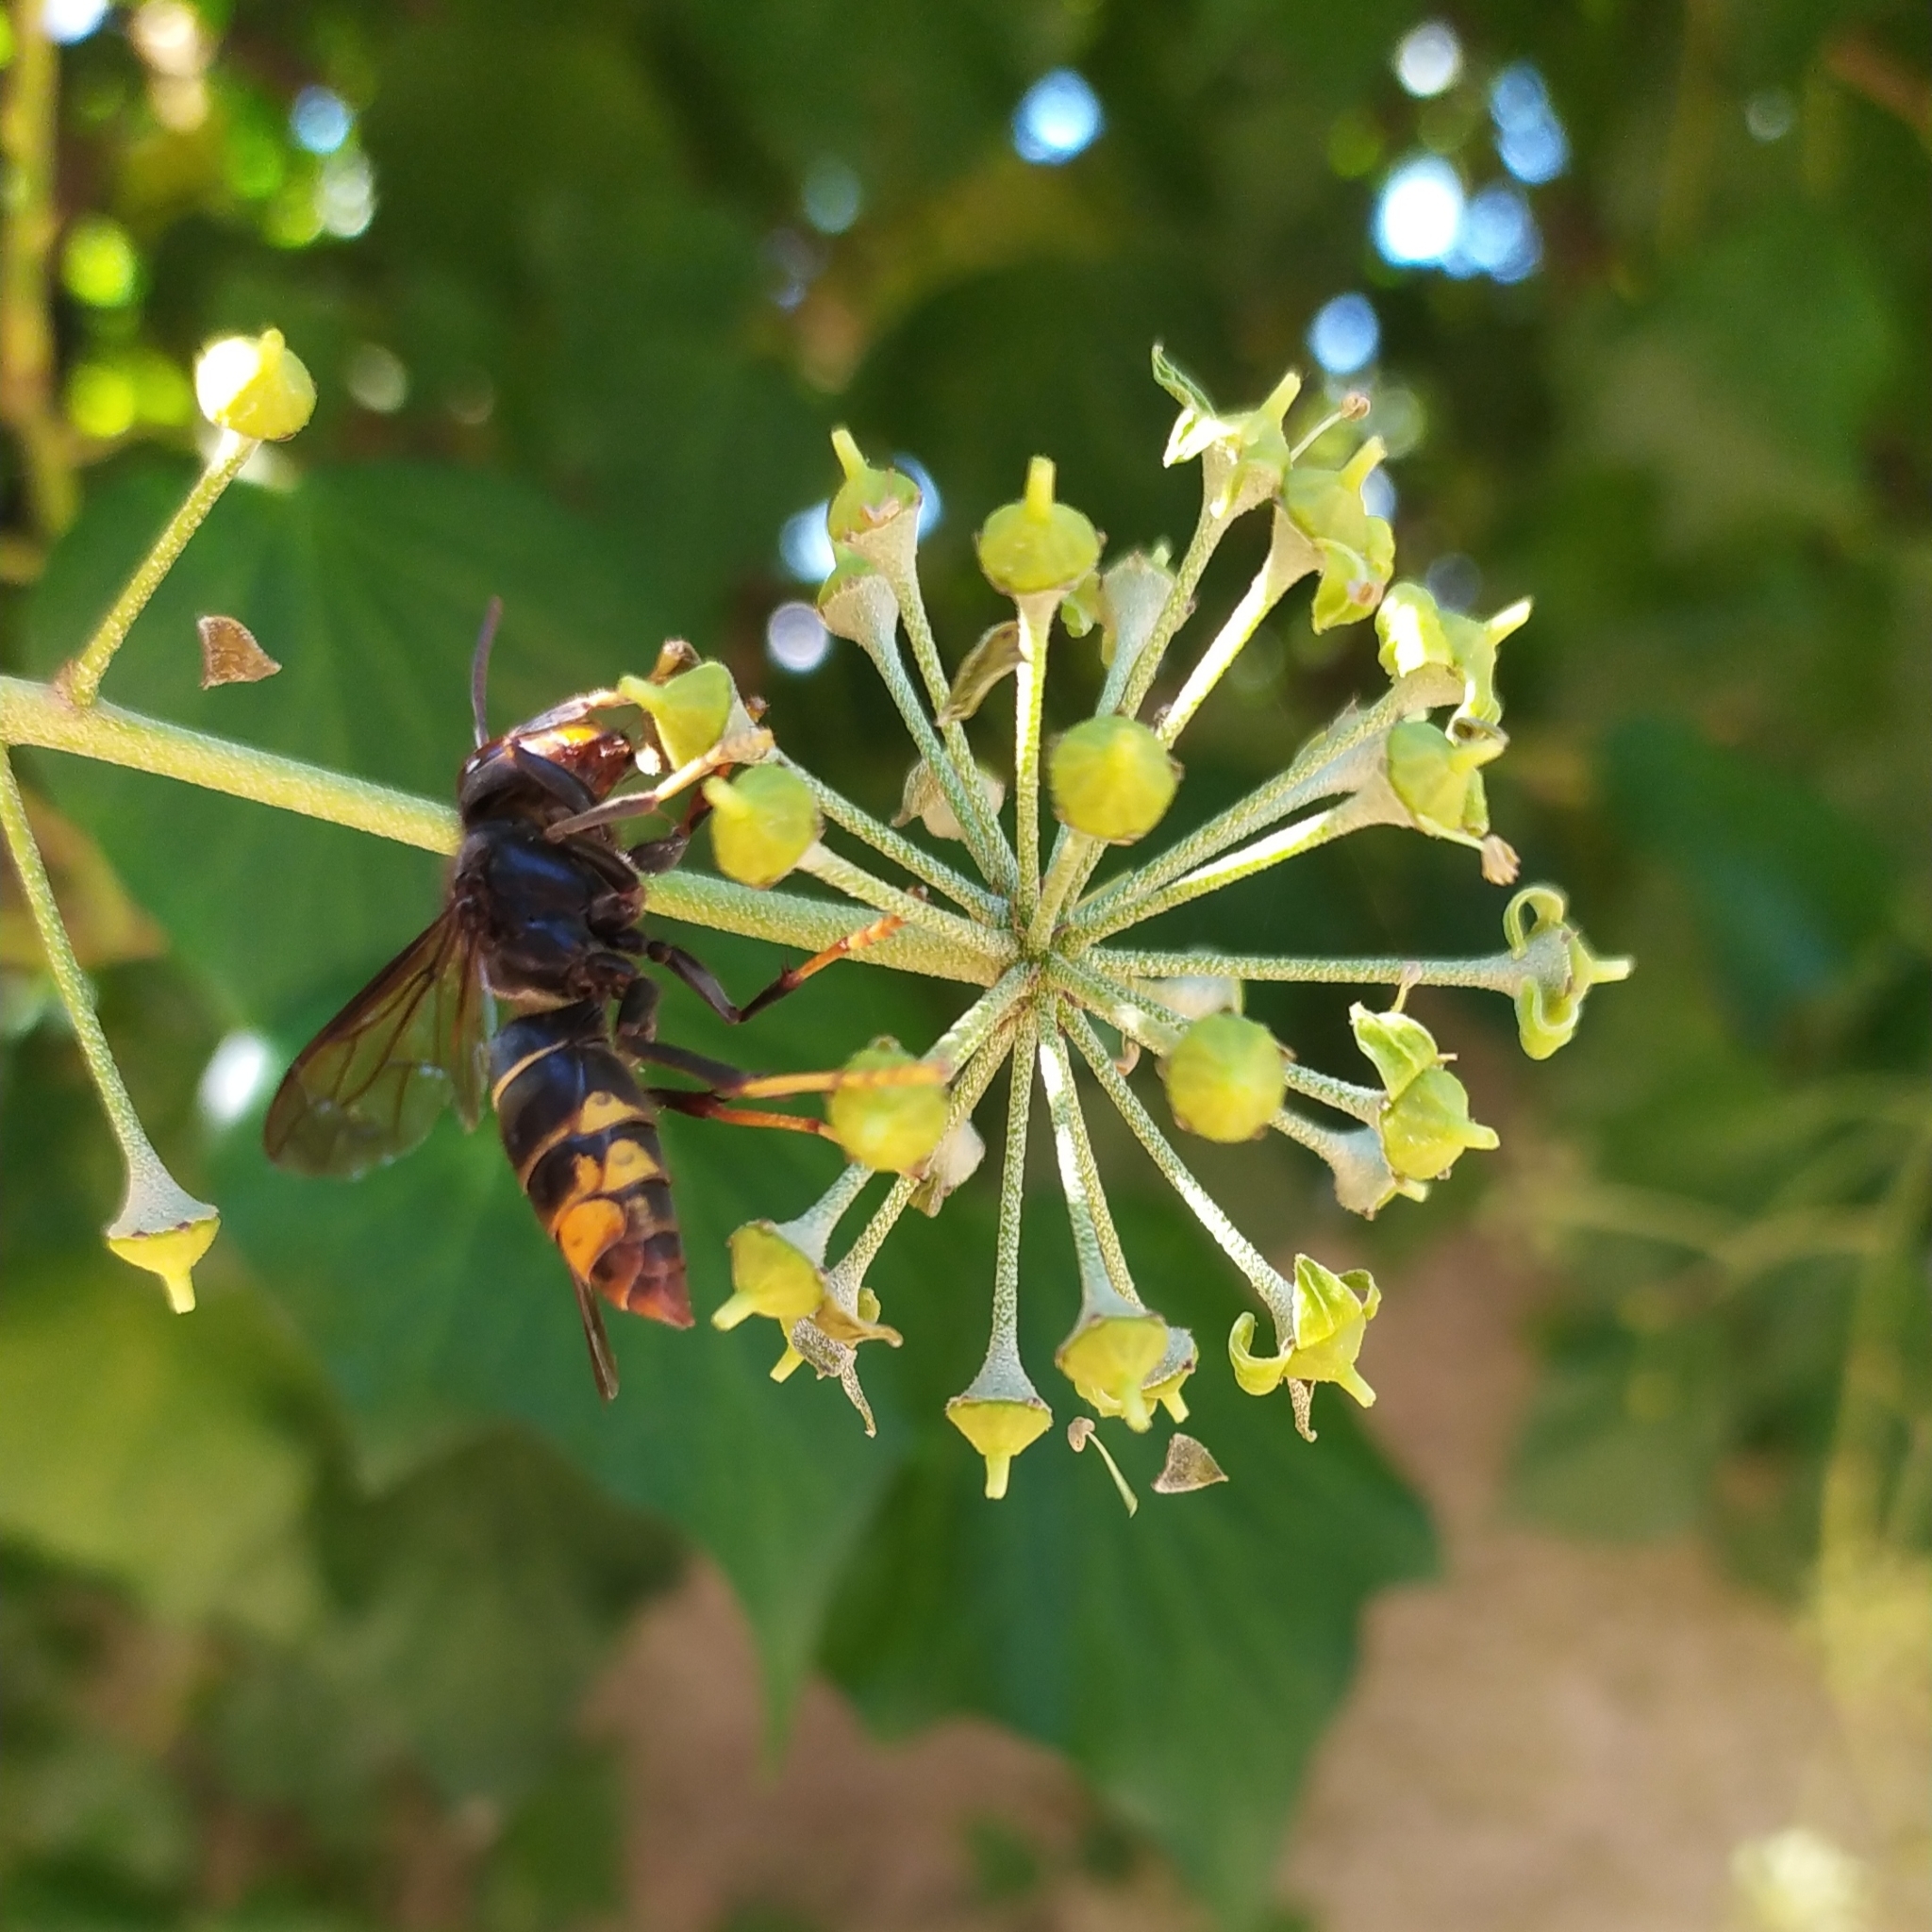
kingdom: Animalia
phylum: Arthropoda
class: Insecta
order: Hymenoptera
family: Vespidae
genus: Vespa
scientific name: Vespa velutina
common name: Asian hornet
